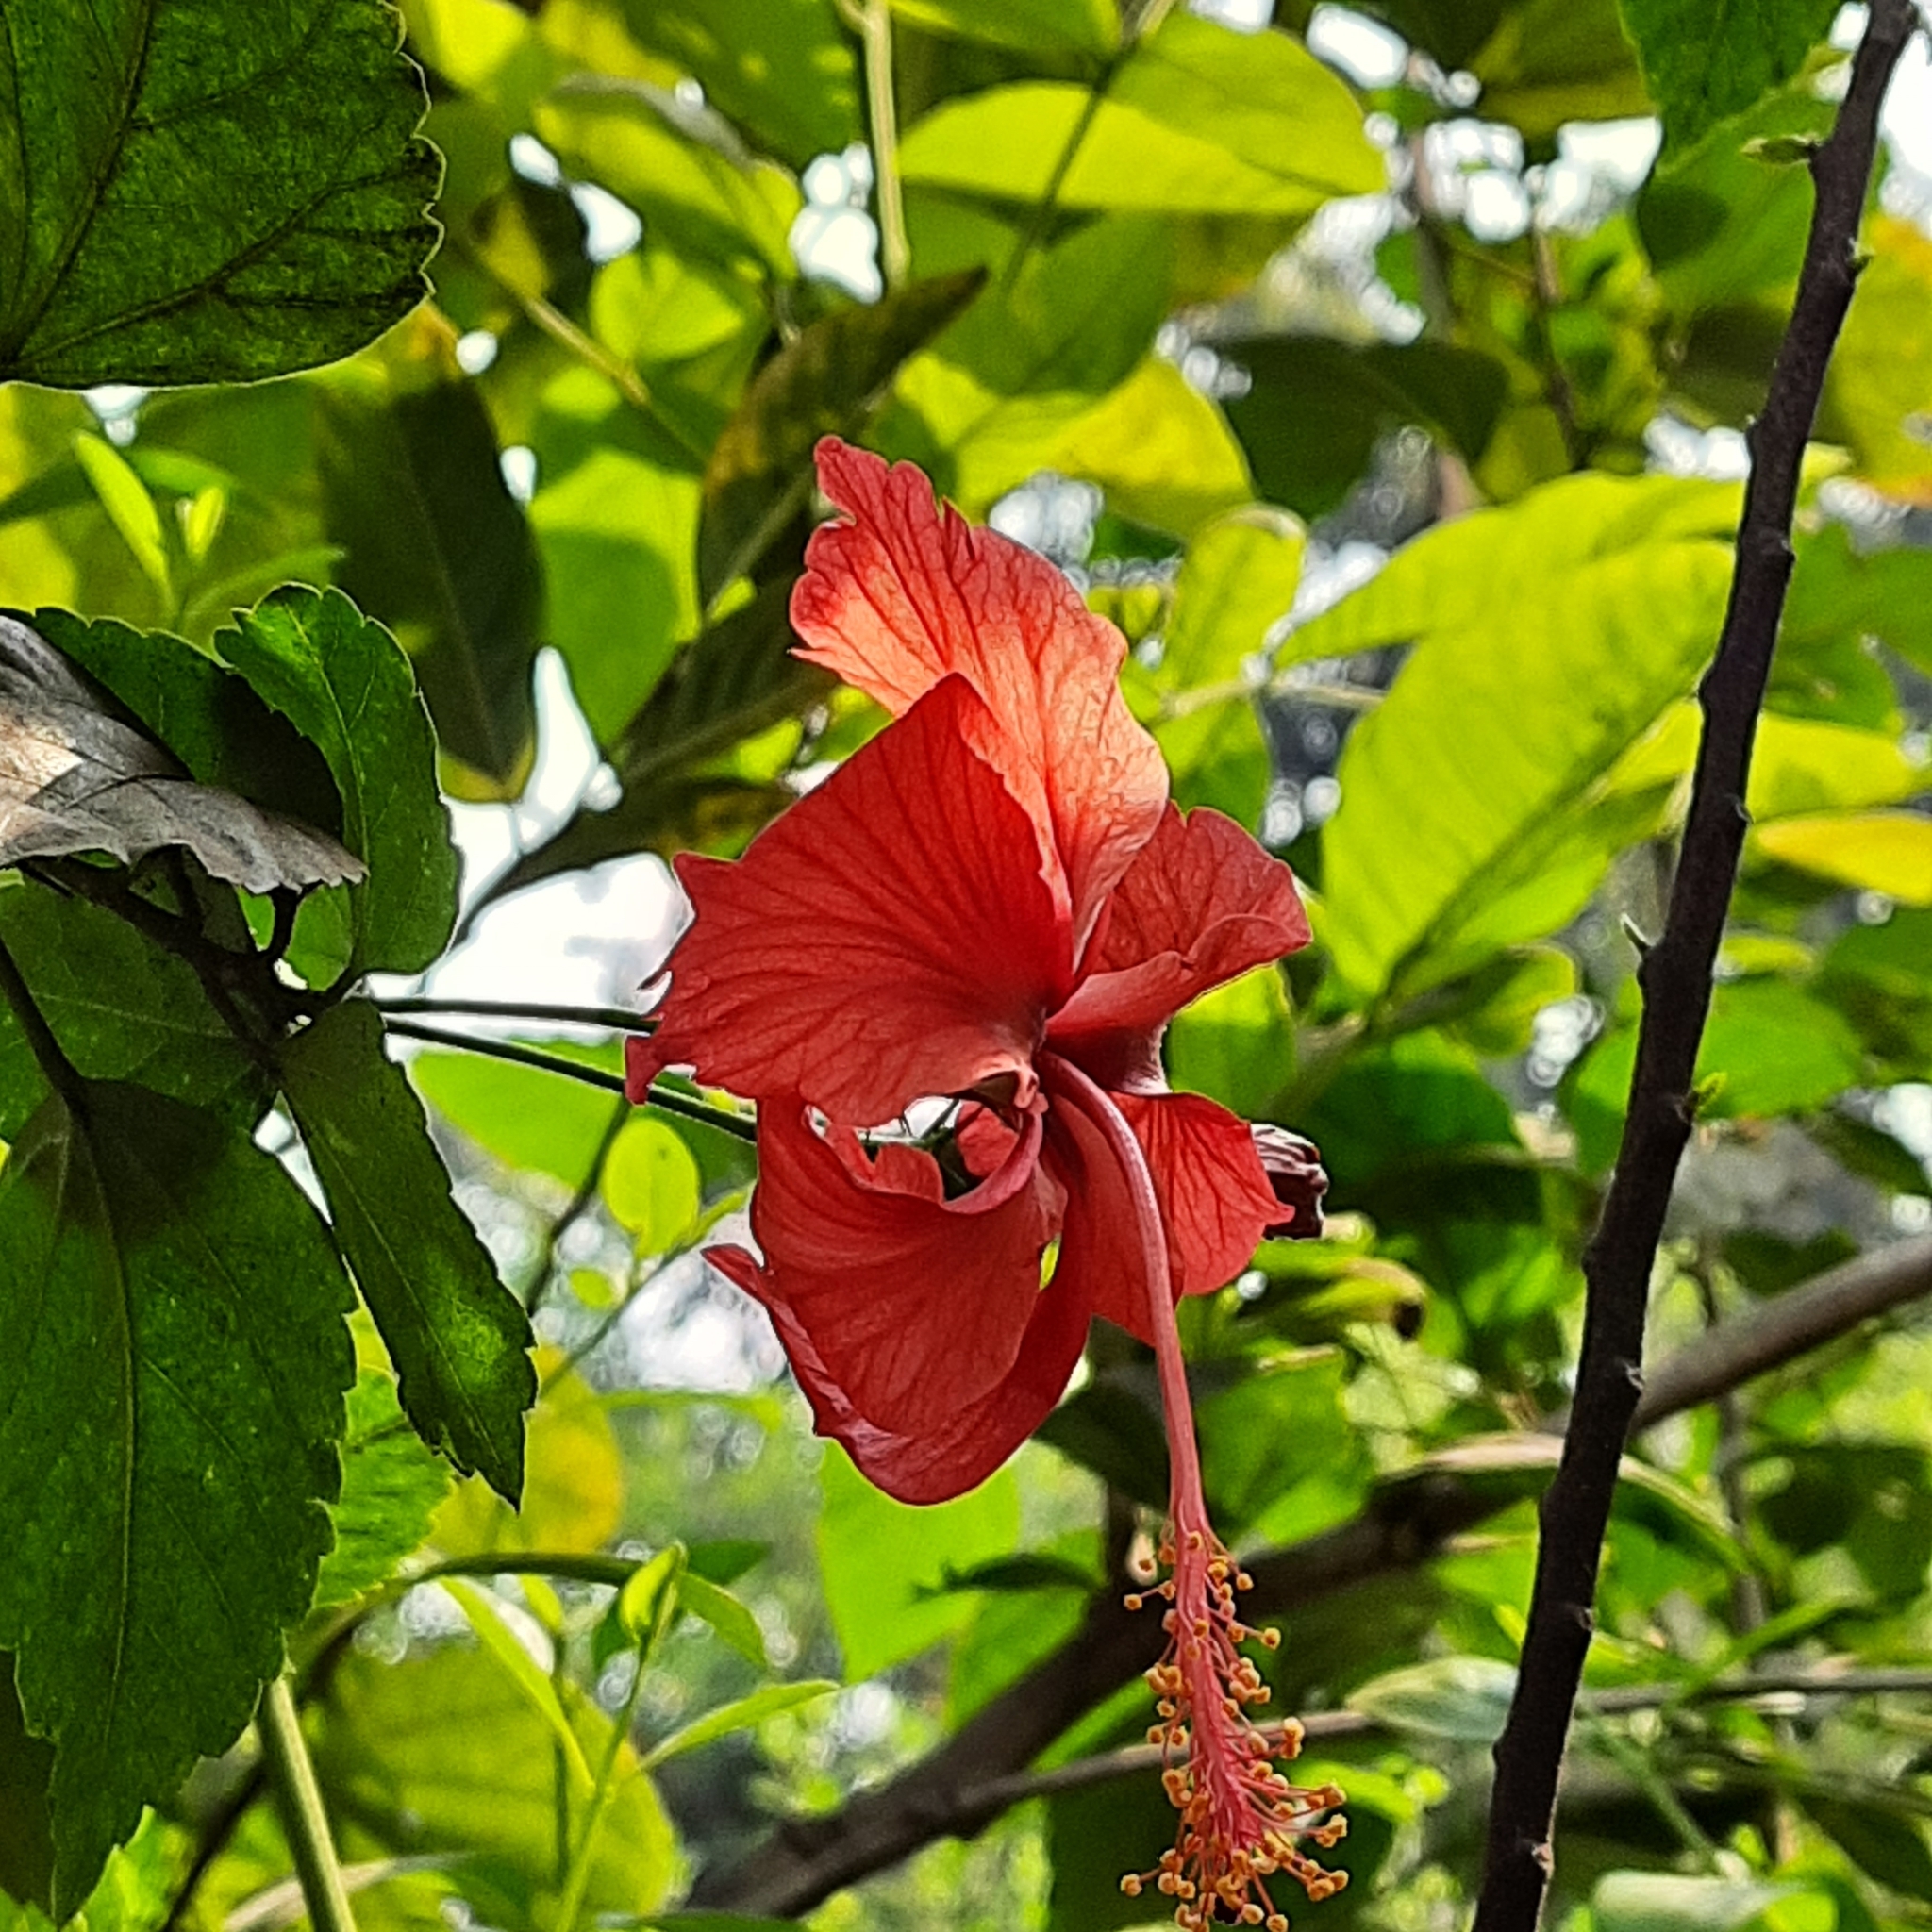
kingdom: Plantae
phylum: Tracheophyta
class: Magnoliopsida
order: Malvales
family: Malvaceae
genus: Hibiscus
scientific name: Hibiscus archeri
